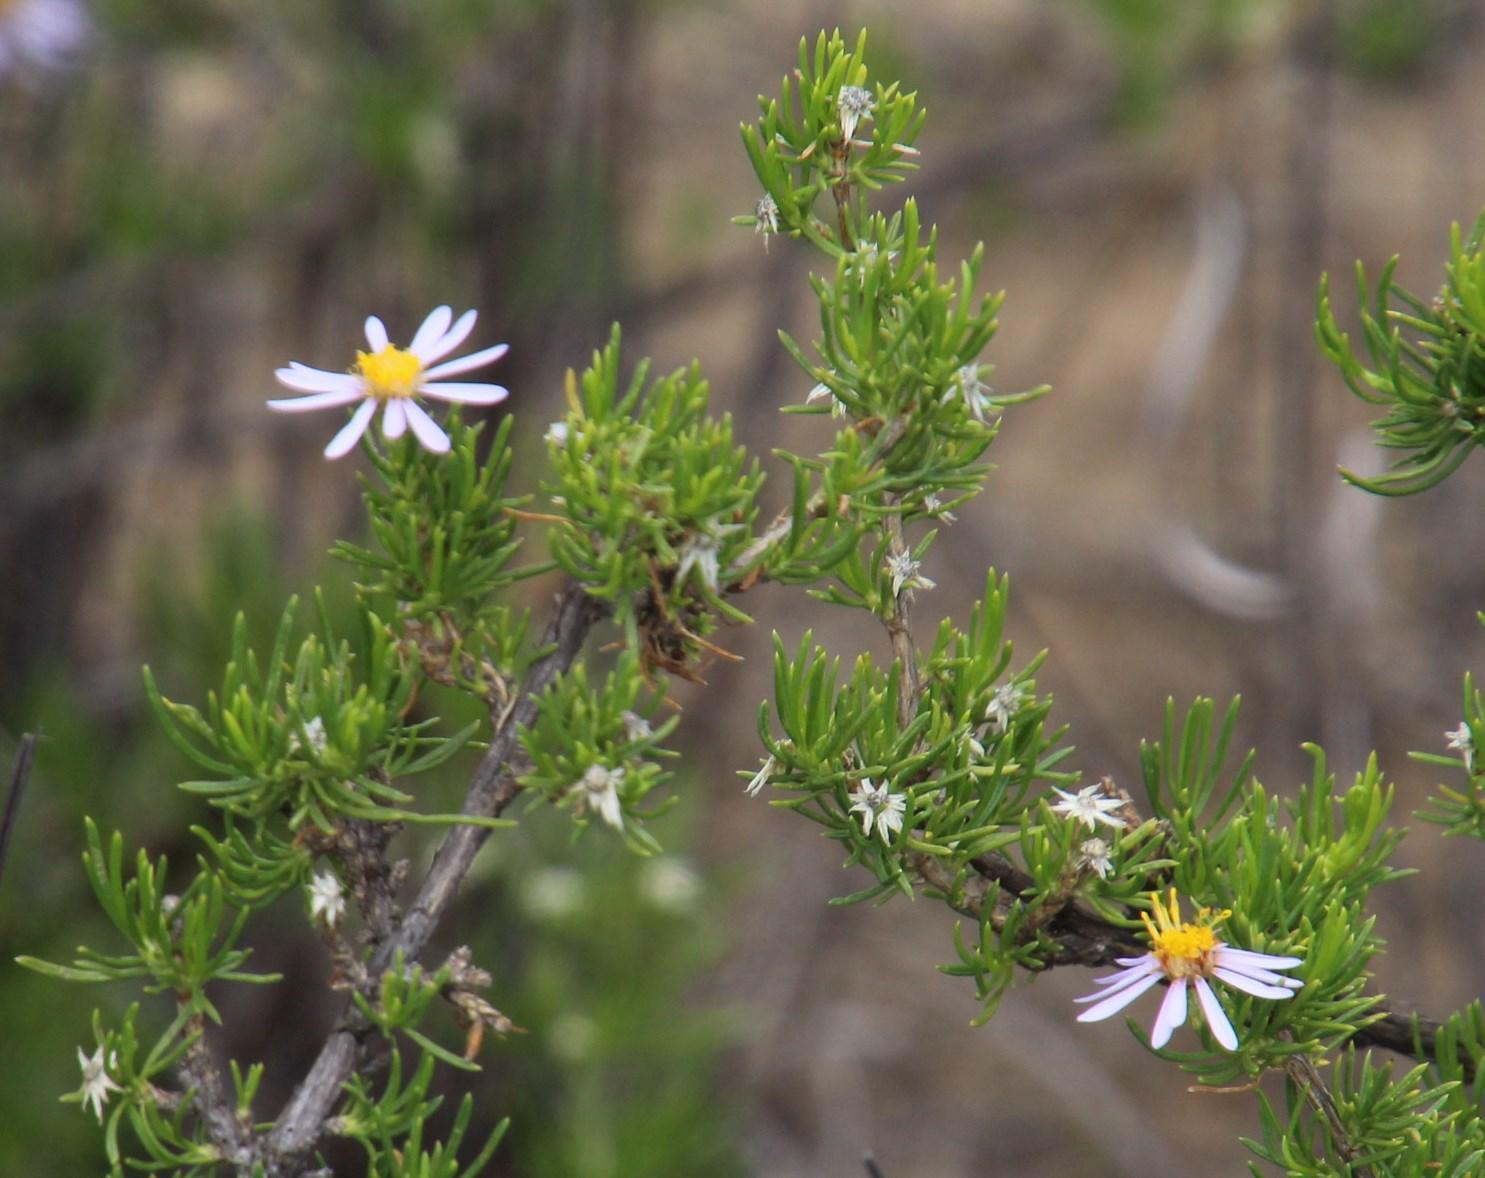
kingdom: Plantae
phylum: Tracheophyta
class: Magnoliopsida
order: Asterales
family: Asteraceae
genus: Felicia
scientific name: Felicia filifolia
